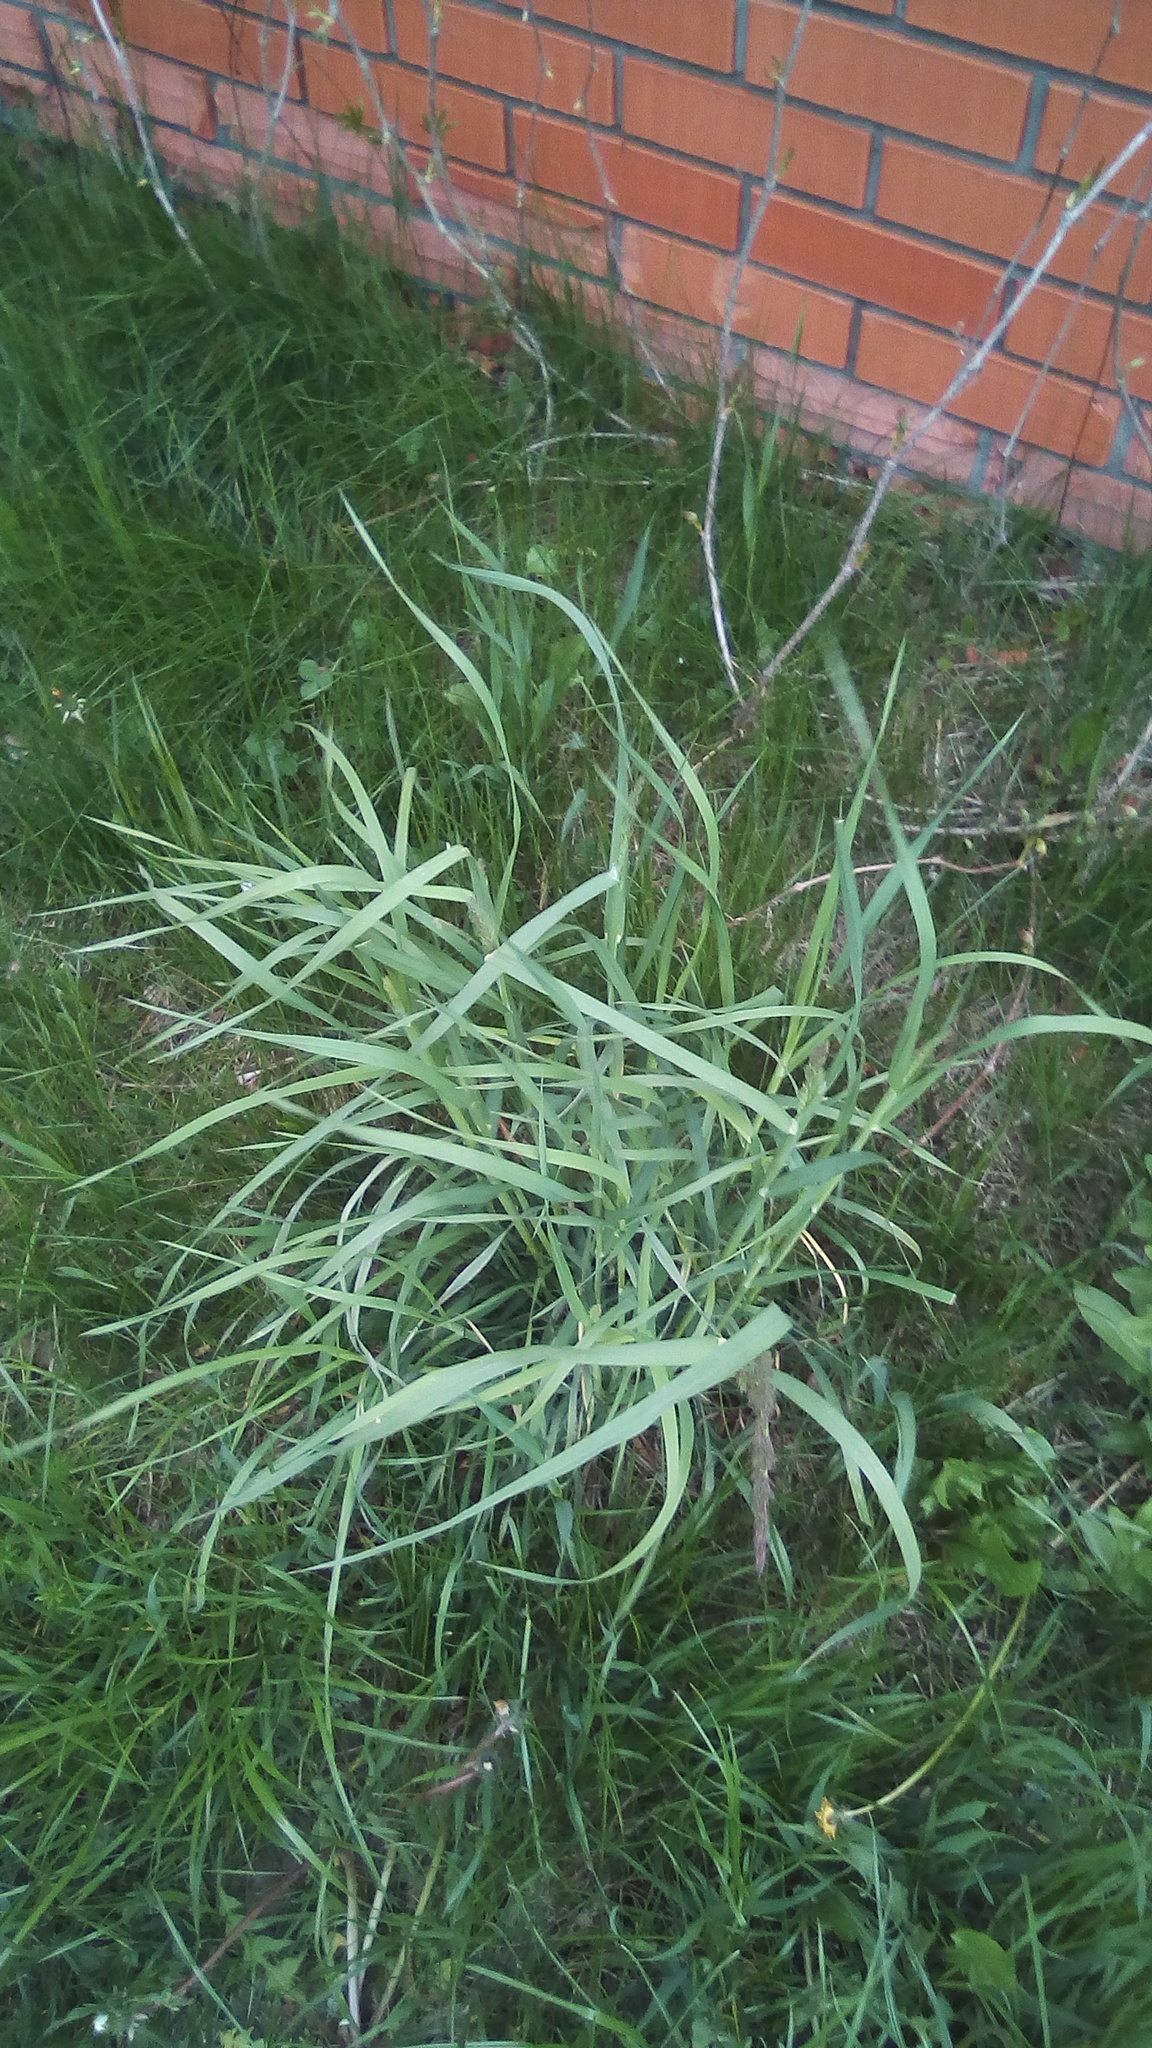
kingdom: Plantae
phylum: Tracheophyta
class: Liliopsida
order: Poales
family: Poaceae
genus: Dactylis
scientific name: Dactylis glomerata
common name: Orchardgrass
